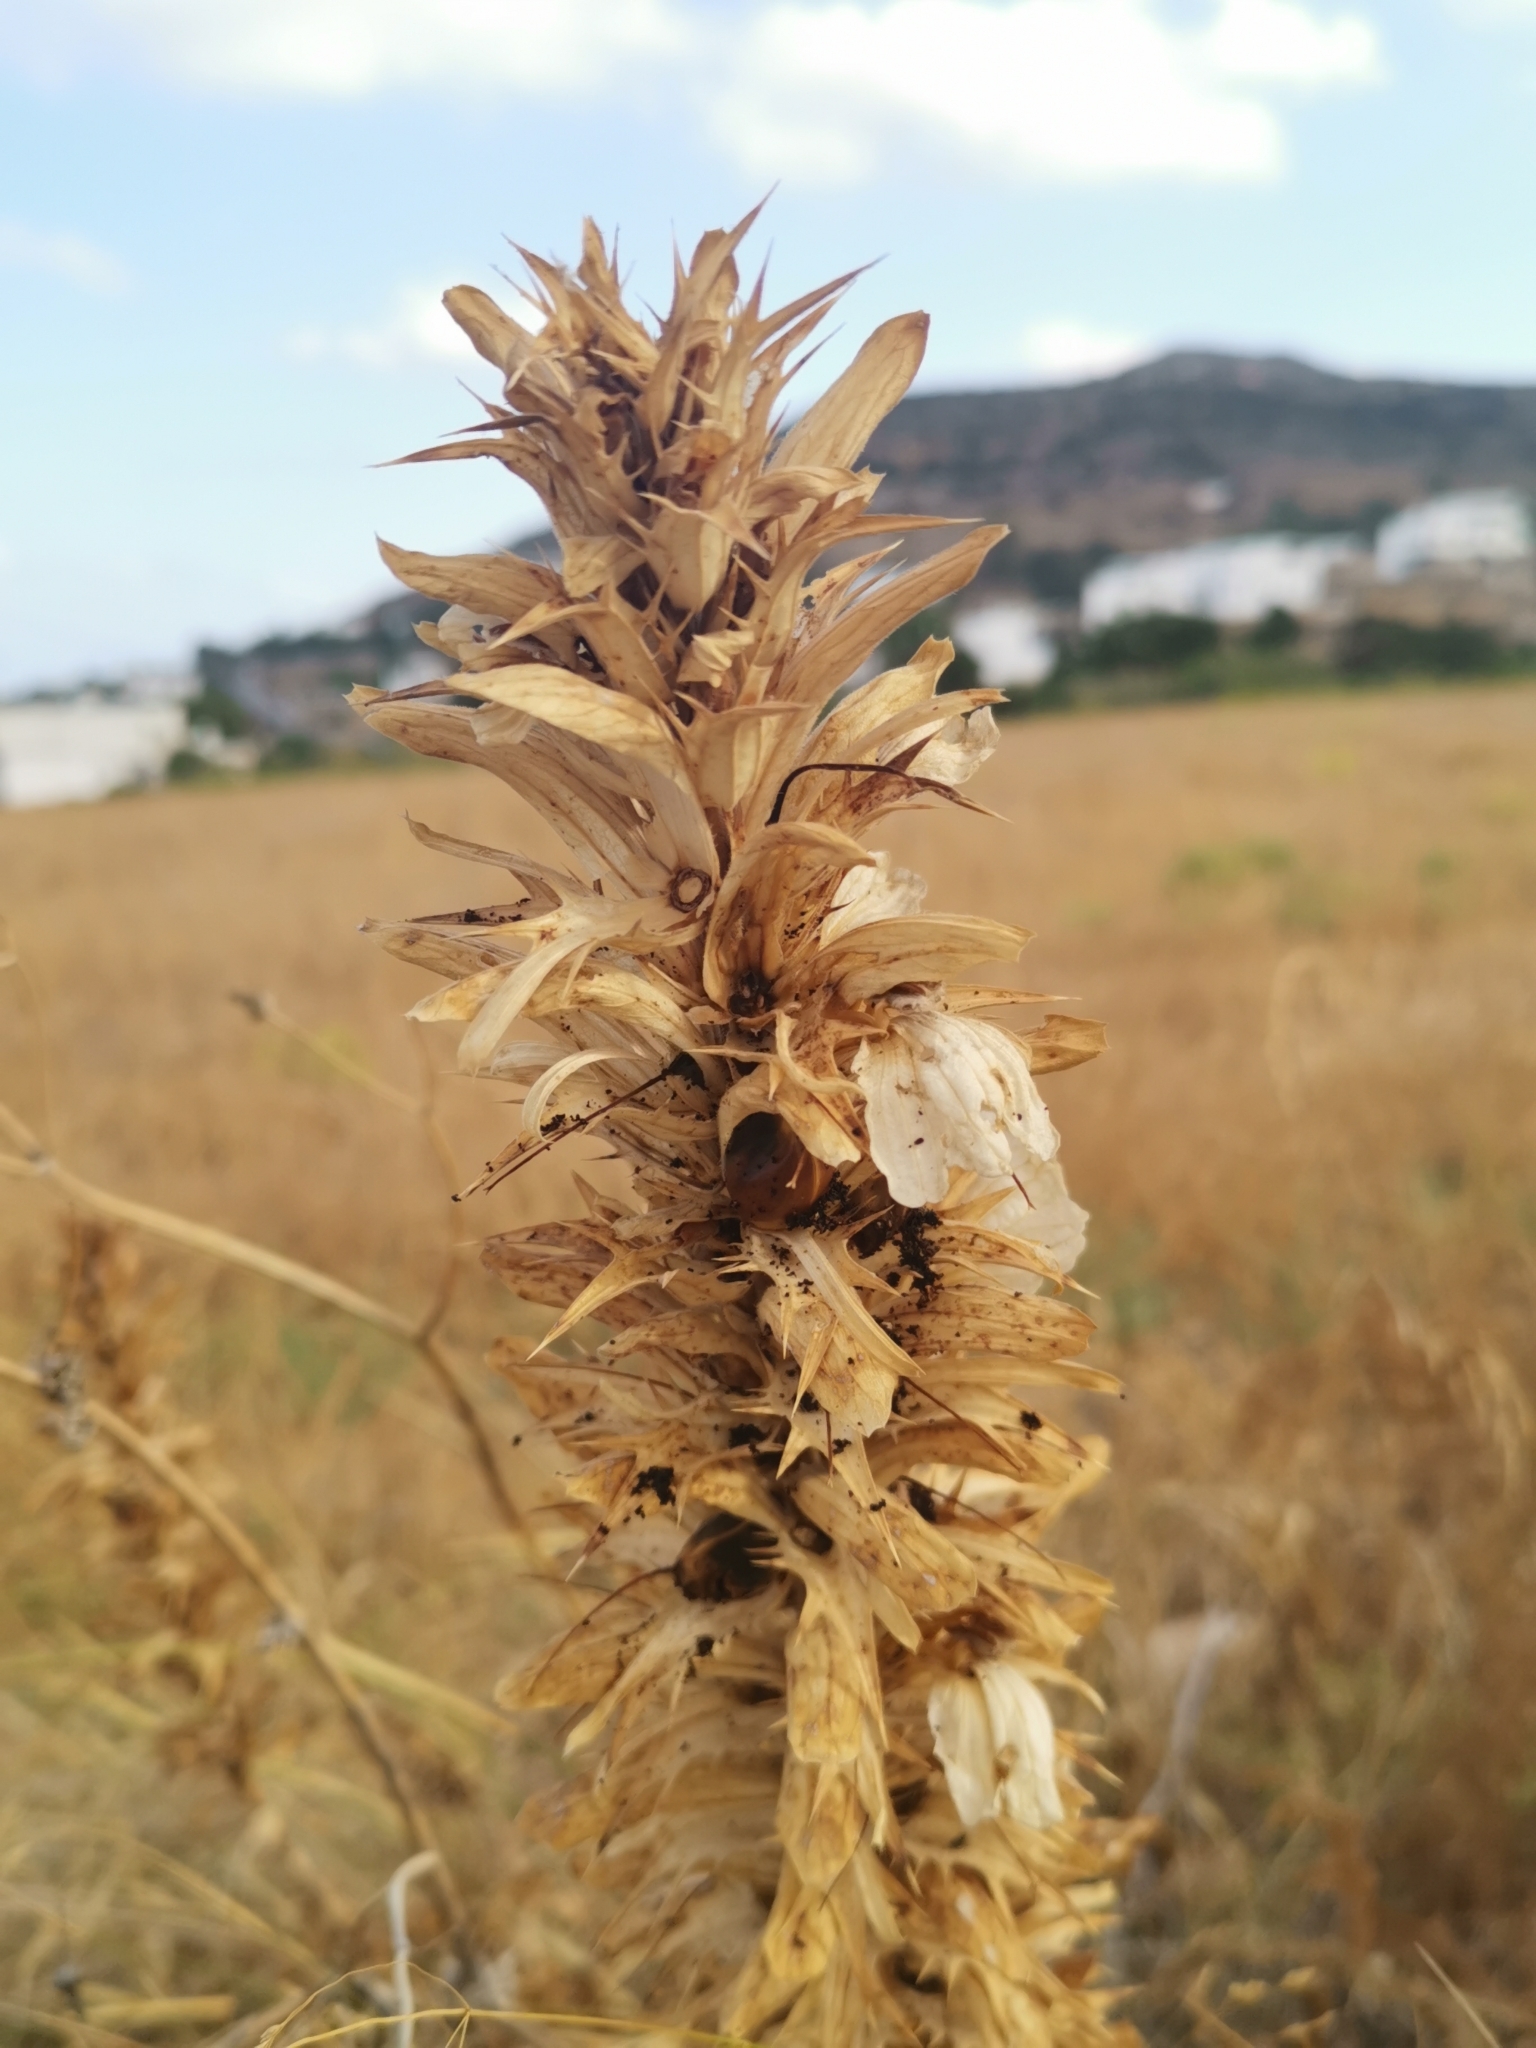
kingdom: Plantae
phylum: Tracheophyta
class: Magnoliopsida
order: Lamiales
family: Acanthaceae
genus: Acanthus
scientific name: Acanthus spinosus
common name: Spiny bear's-breech
